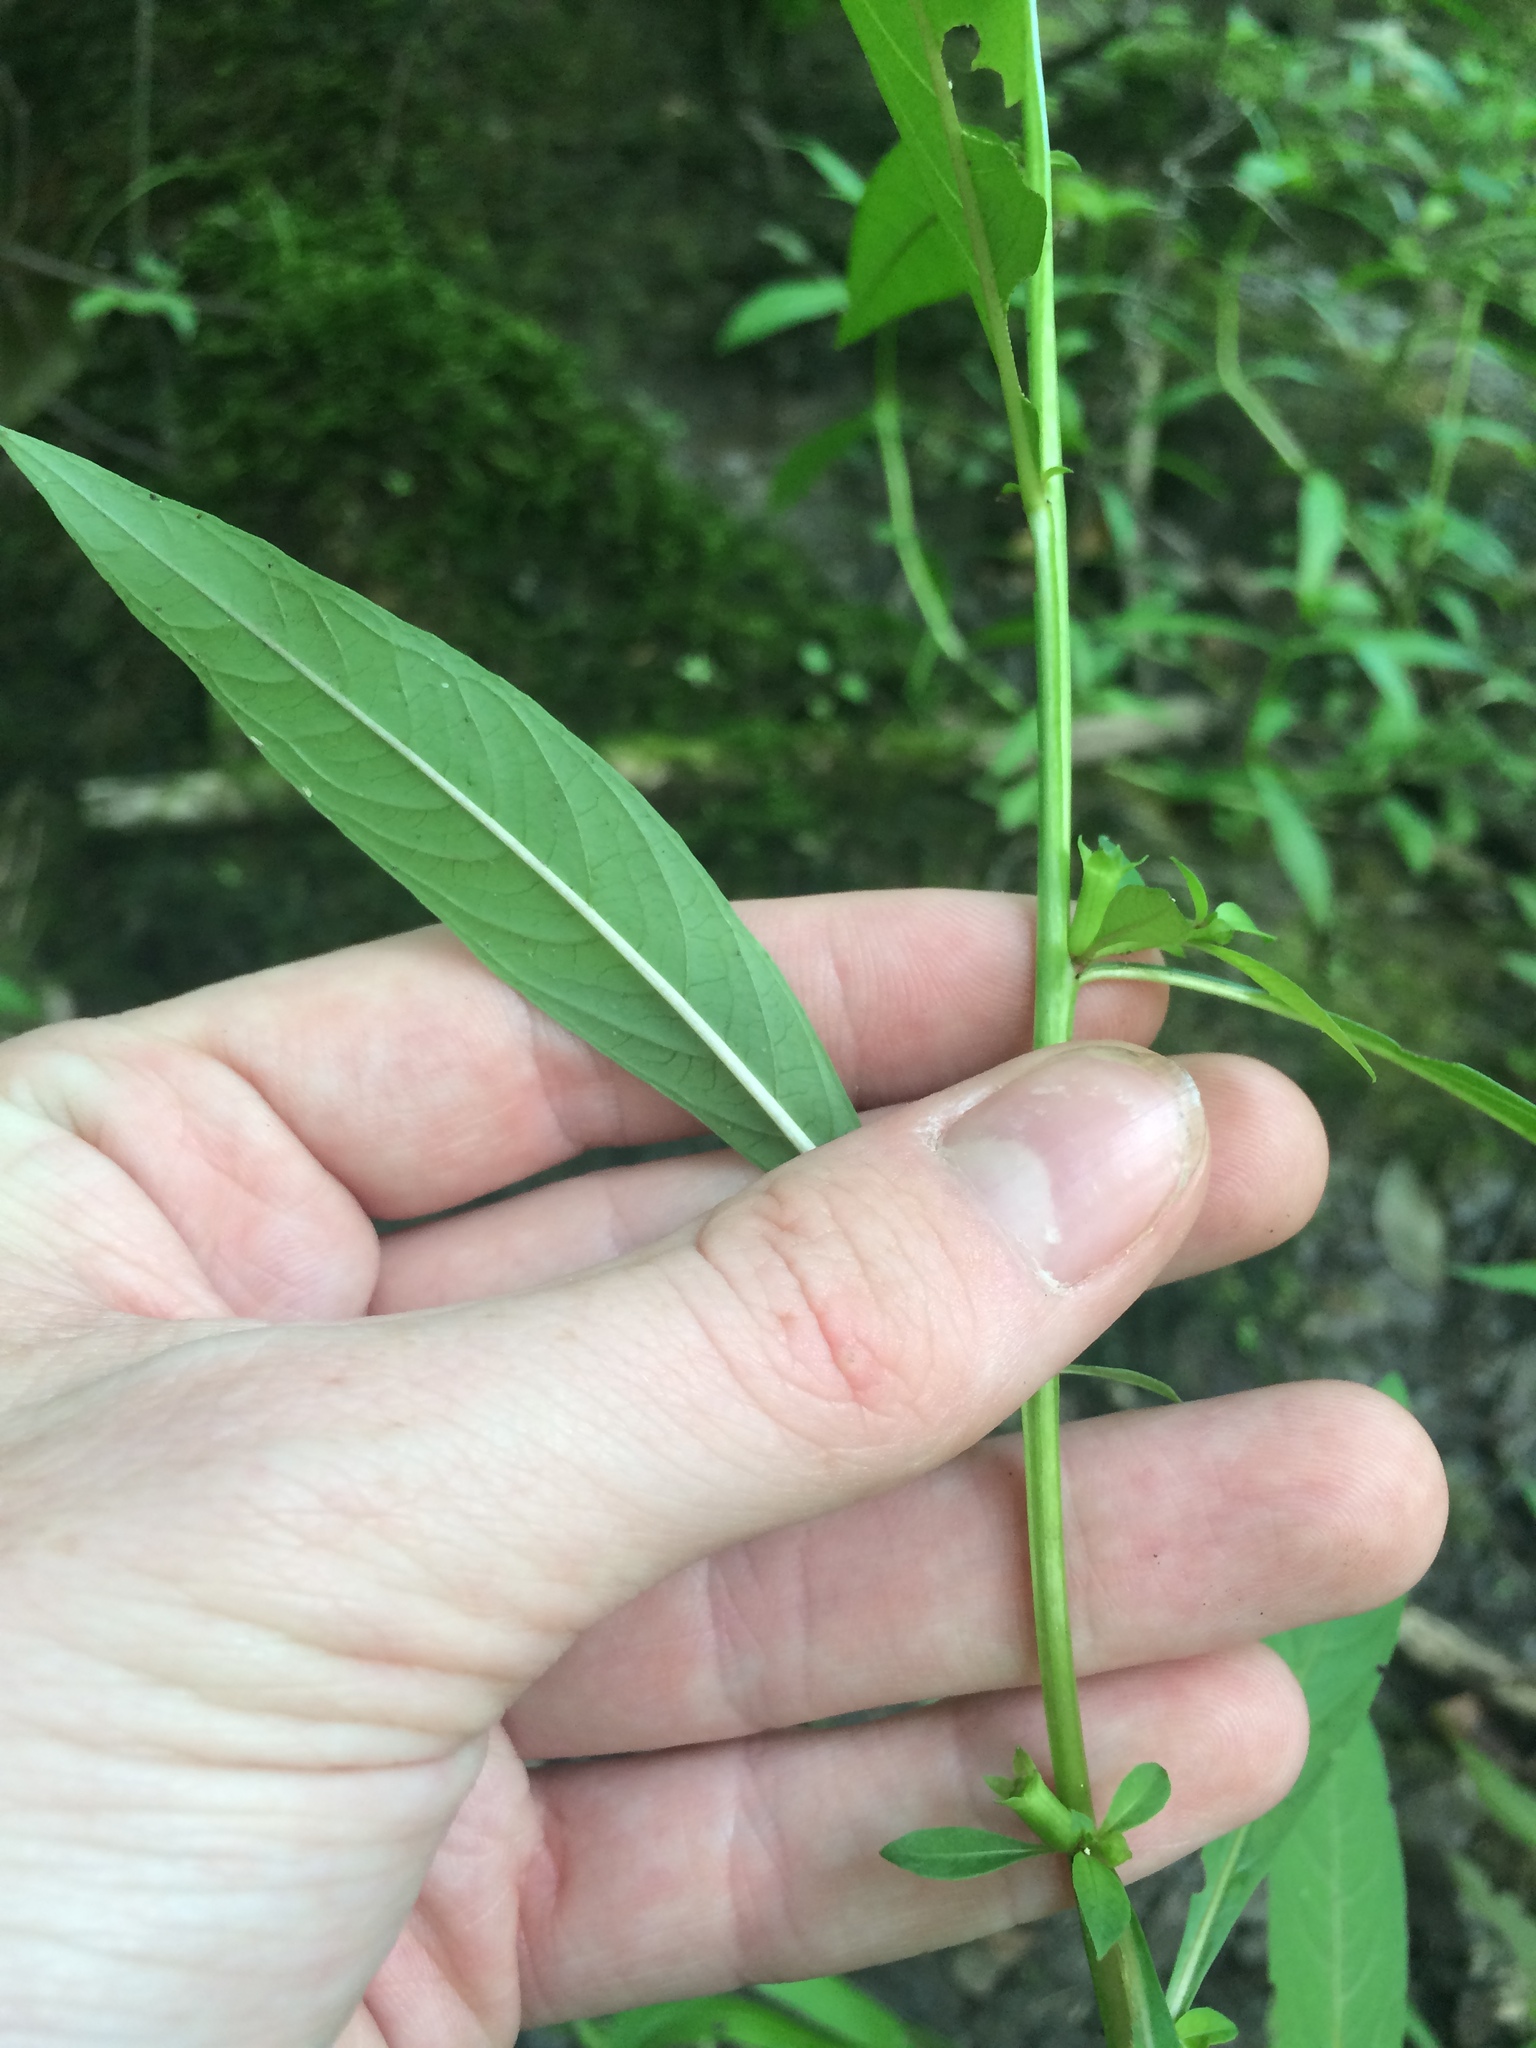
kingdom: Plantae
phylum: Tracheophyta
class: Magnoliopsida
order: Myrtales
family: Onagraceae
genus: Ludwigia
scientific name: Ludwigia glandulosa
